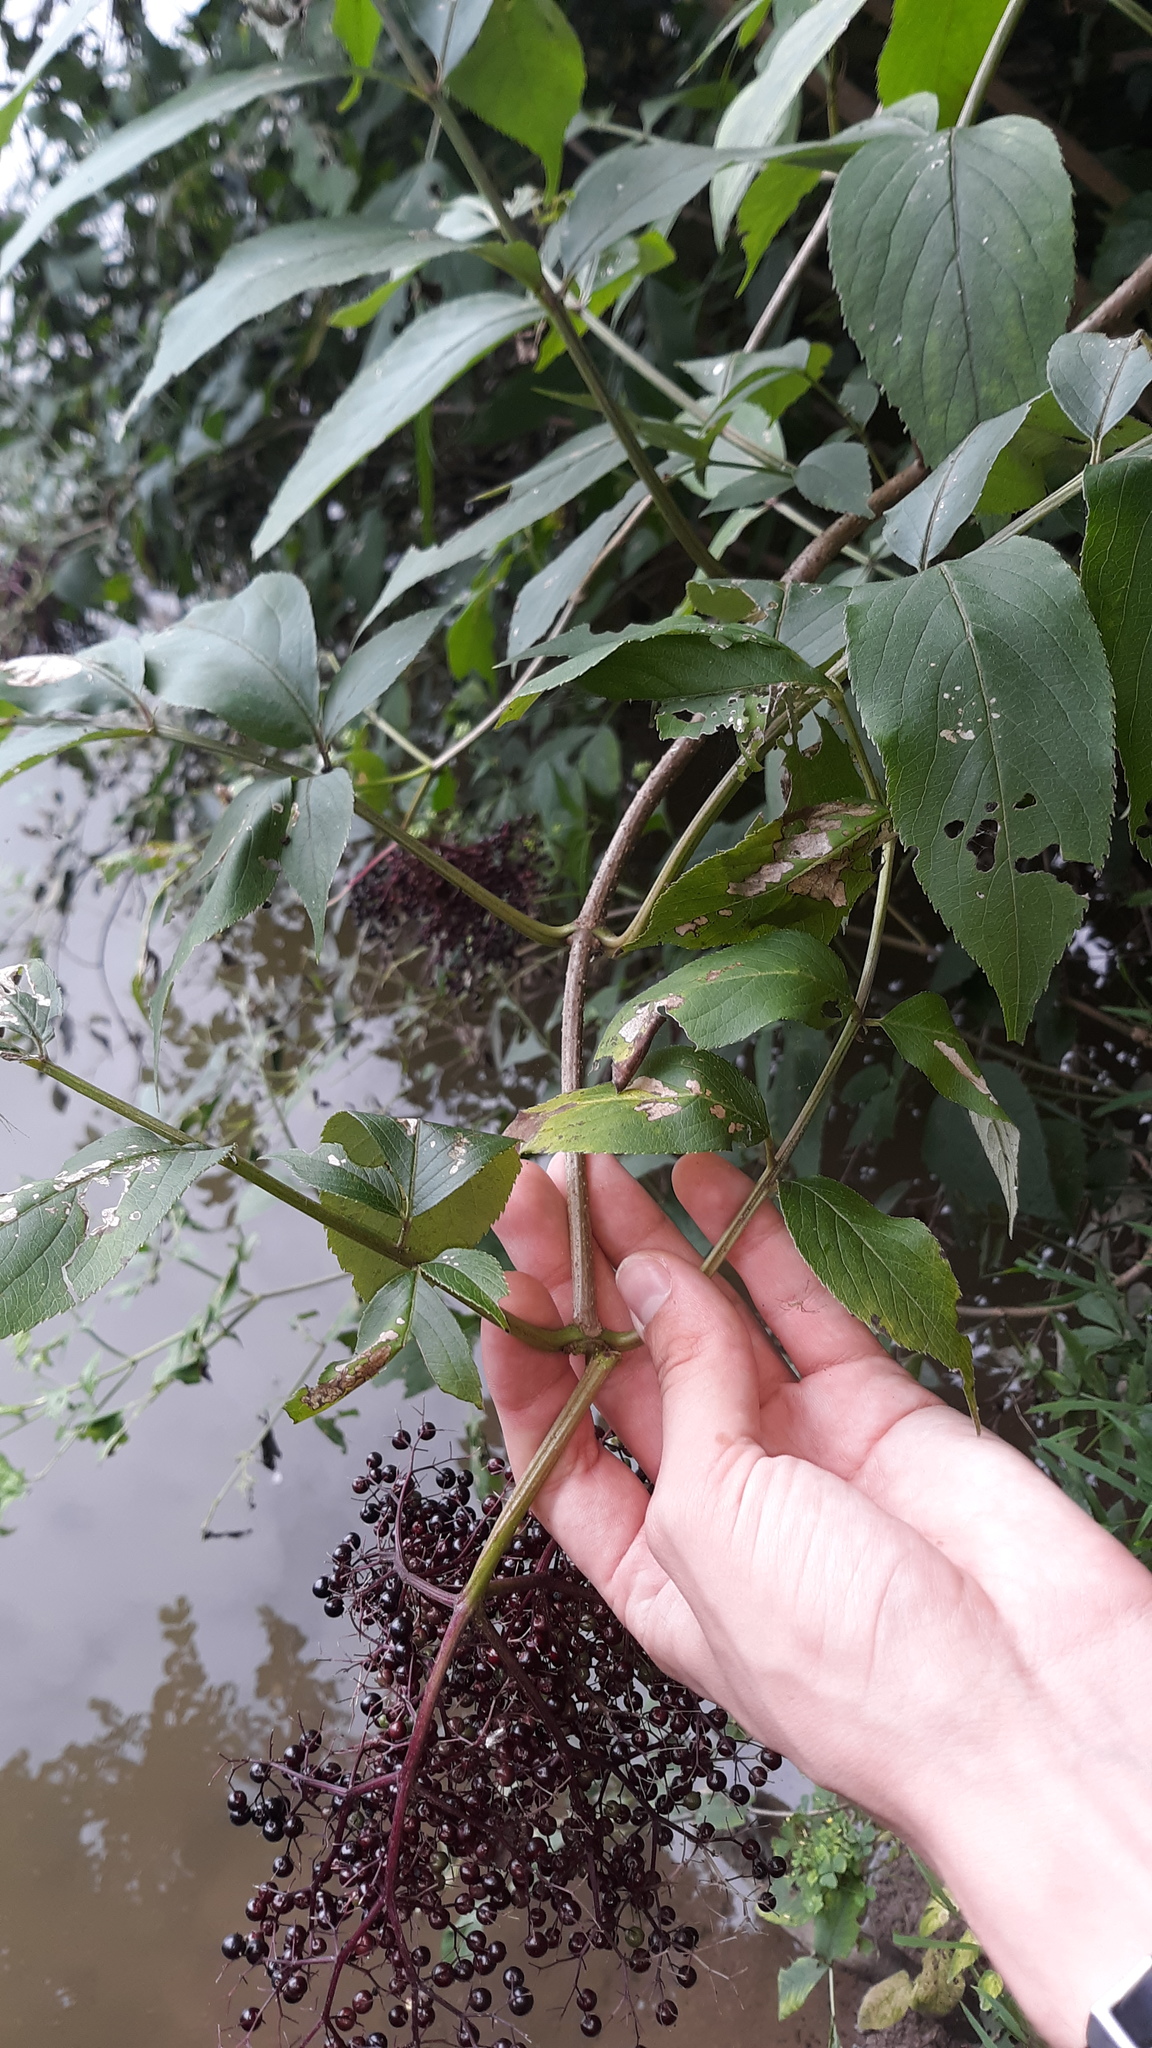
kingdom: Plantae
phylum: Tracheophyta
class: Magnoliopsida
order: Dipsacales
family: Viburnaceae
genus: Sambucus
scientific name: Sambucus canadensis
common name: American elder
